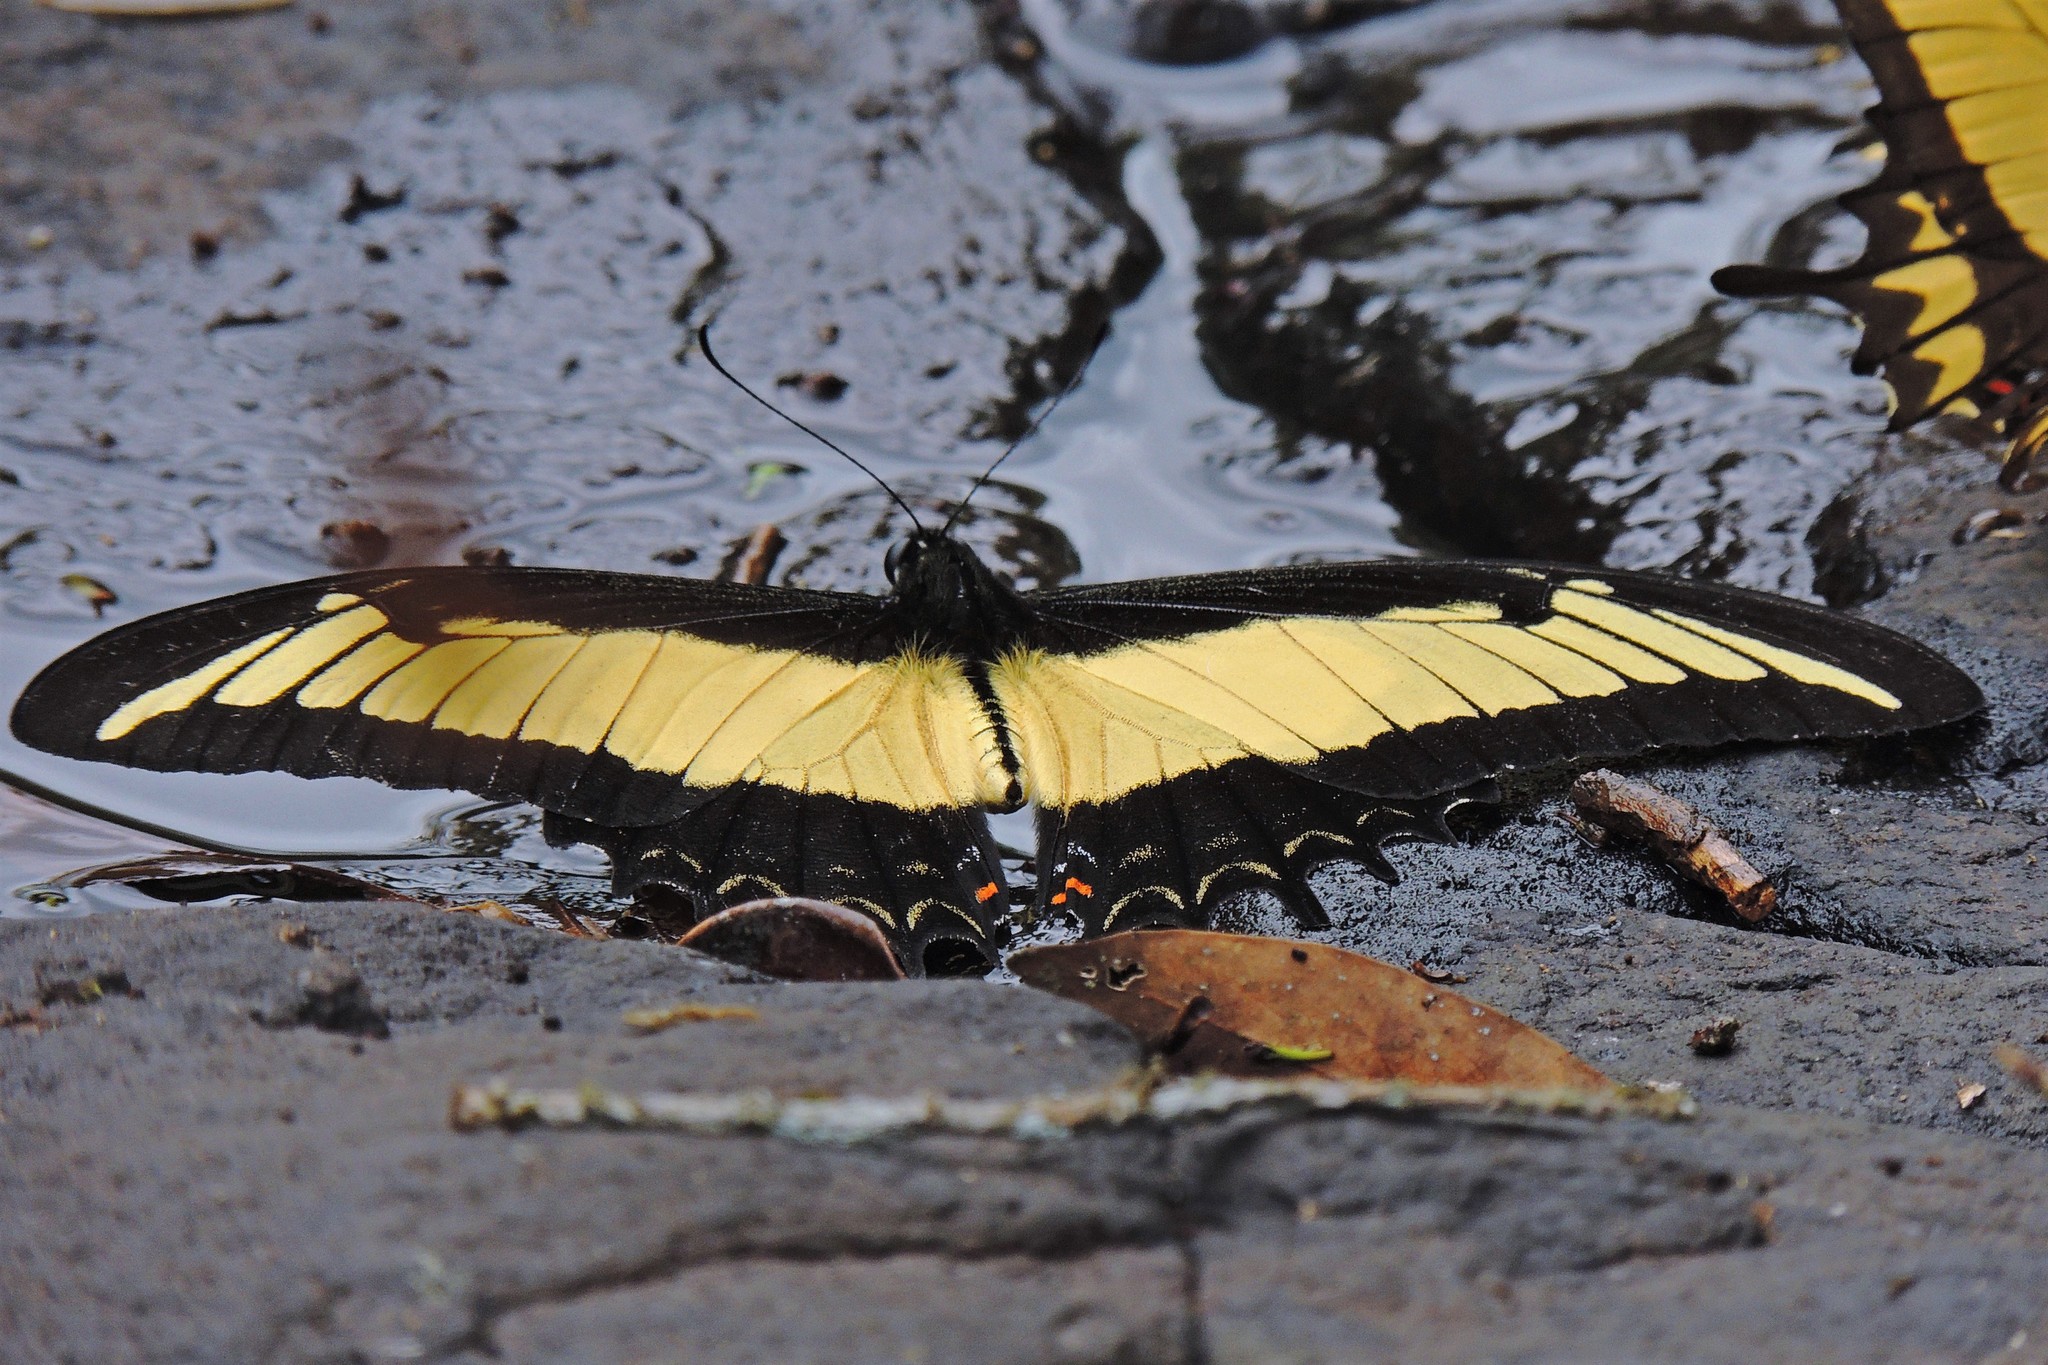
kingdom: Animalia
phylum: Arthropoda
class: Insecta
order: Lepidoptera
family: Papilionidae
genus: Papilio
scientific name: Papilio androgeus
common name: Androgeus swallowtail
